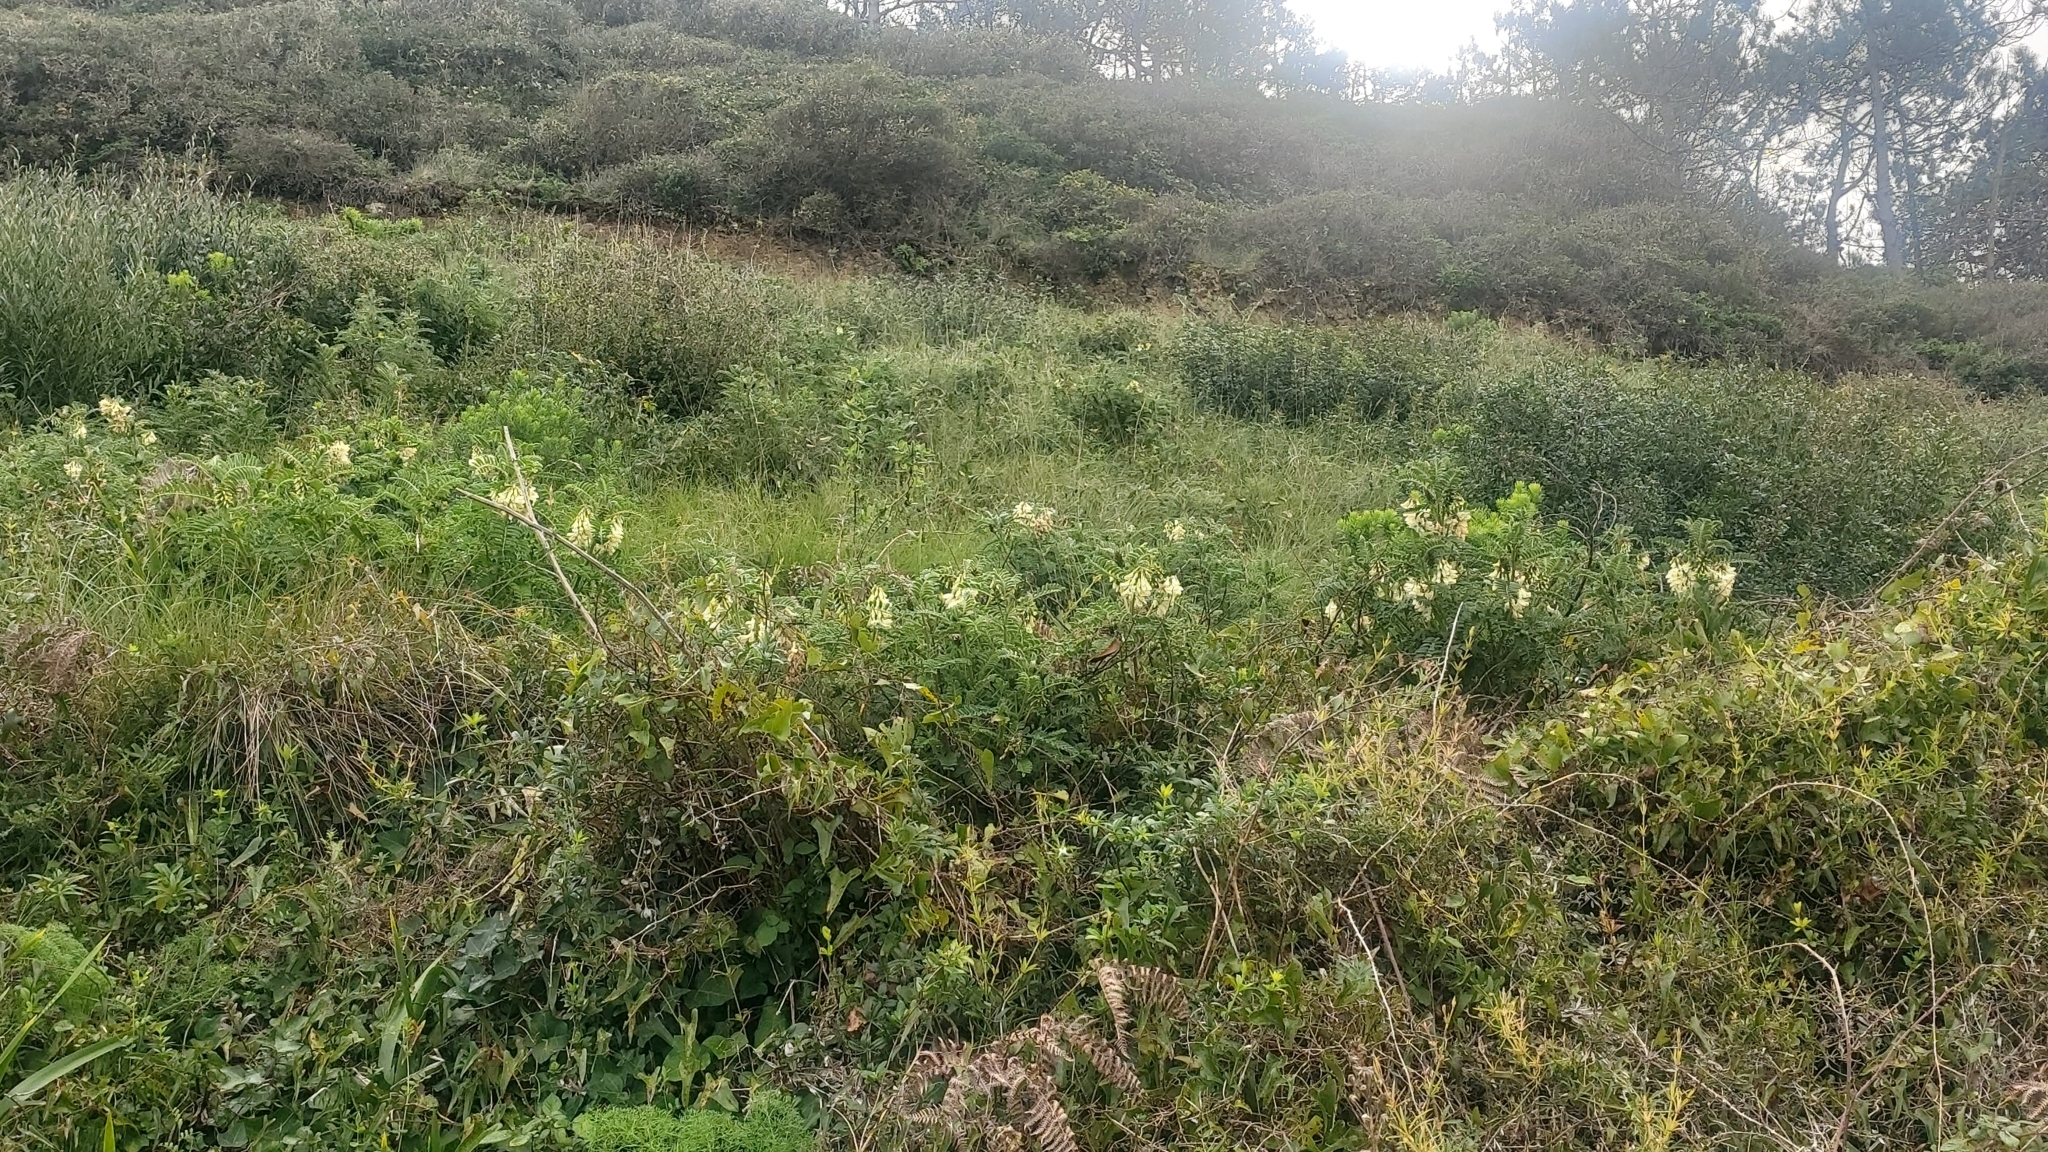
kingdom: Plantae
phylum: Tracheophyta
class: Magnoliopsida
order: Fabales
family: Fabaceae
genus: Erophaca
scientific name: Erophaca baetica
